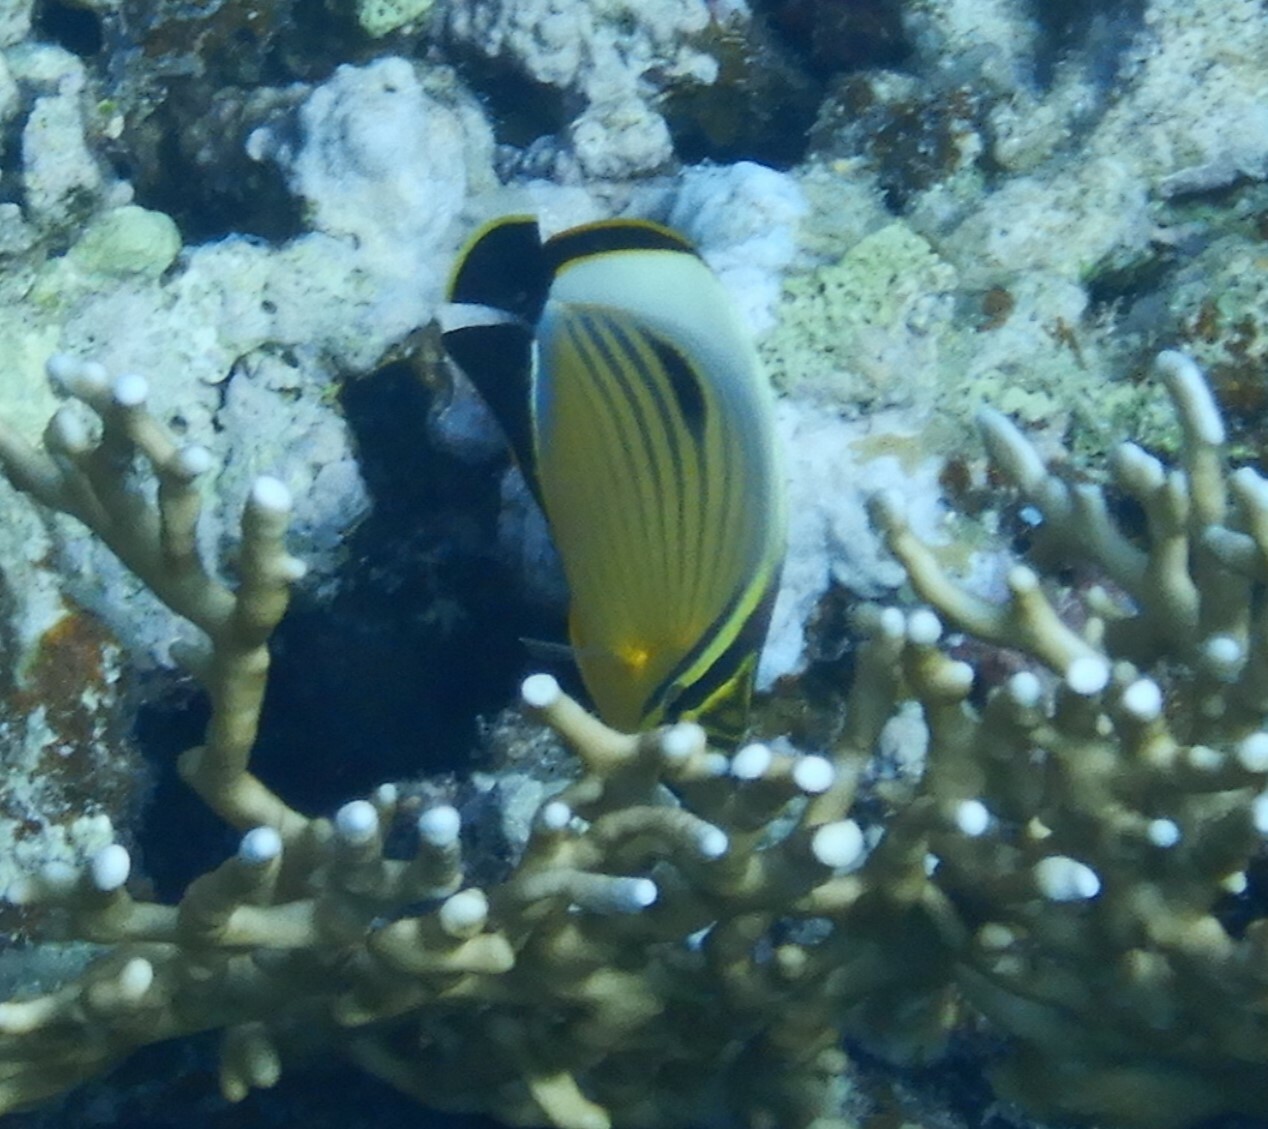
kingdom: Animalia
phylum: Chordata
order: Perciformes
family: Chaetodontidae
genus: Chaetodon
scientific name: Chaetodon austriacus
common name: Exquisite butterflyfish
